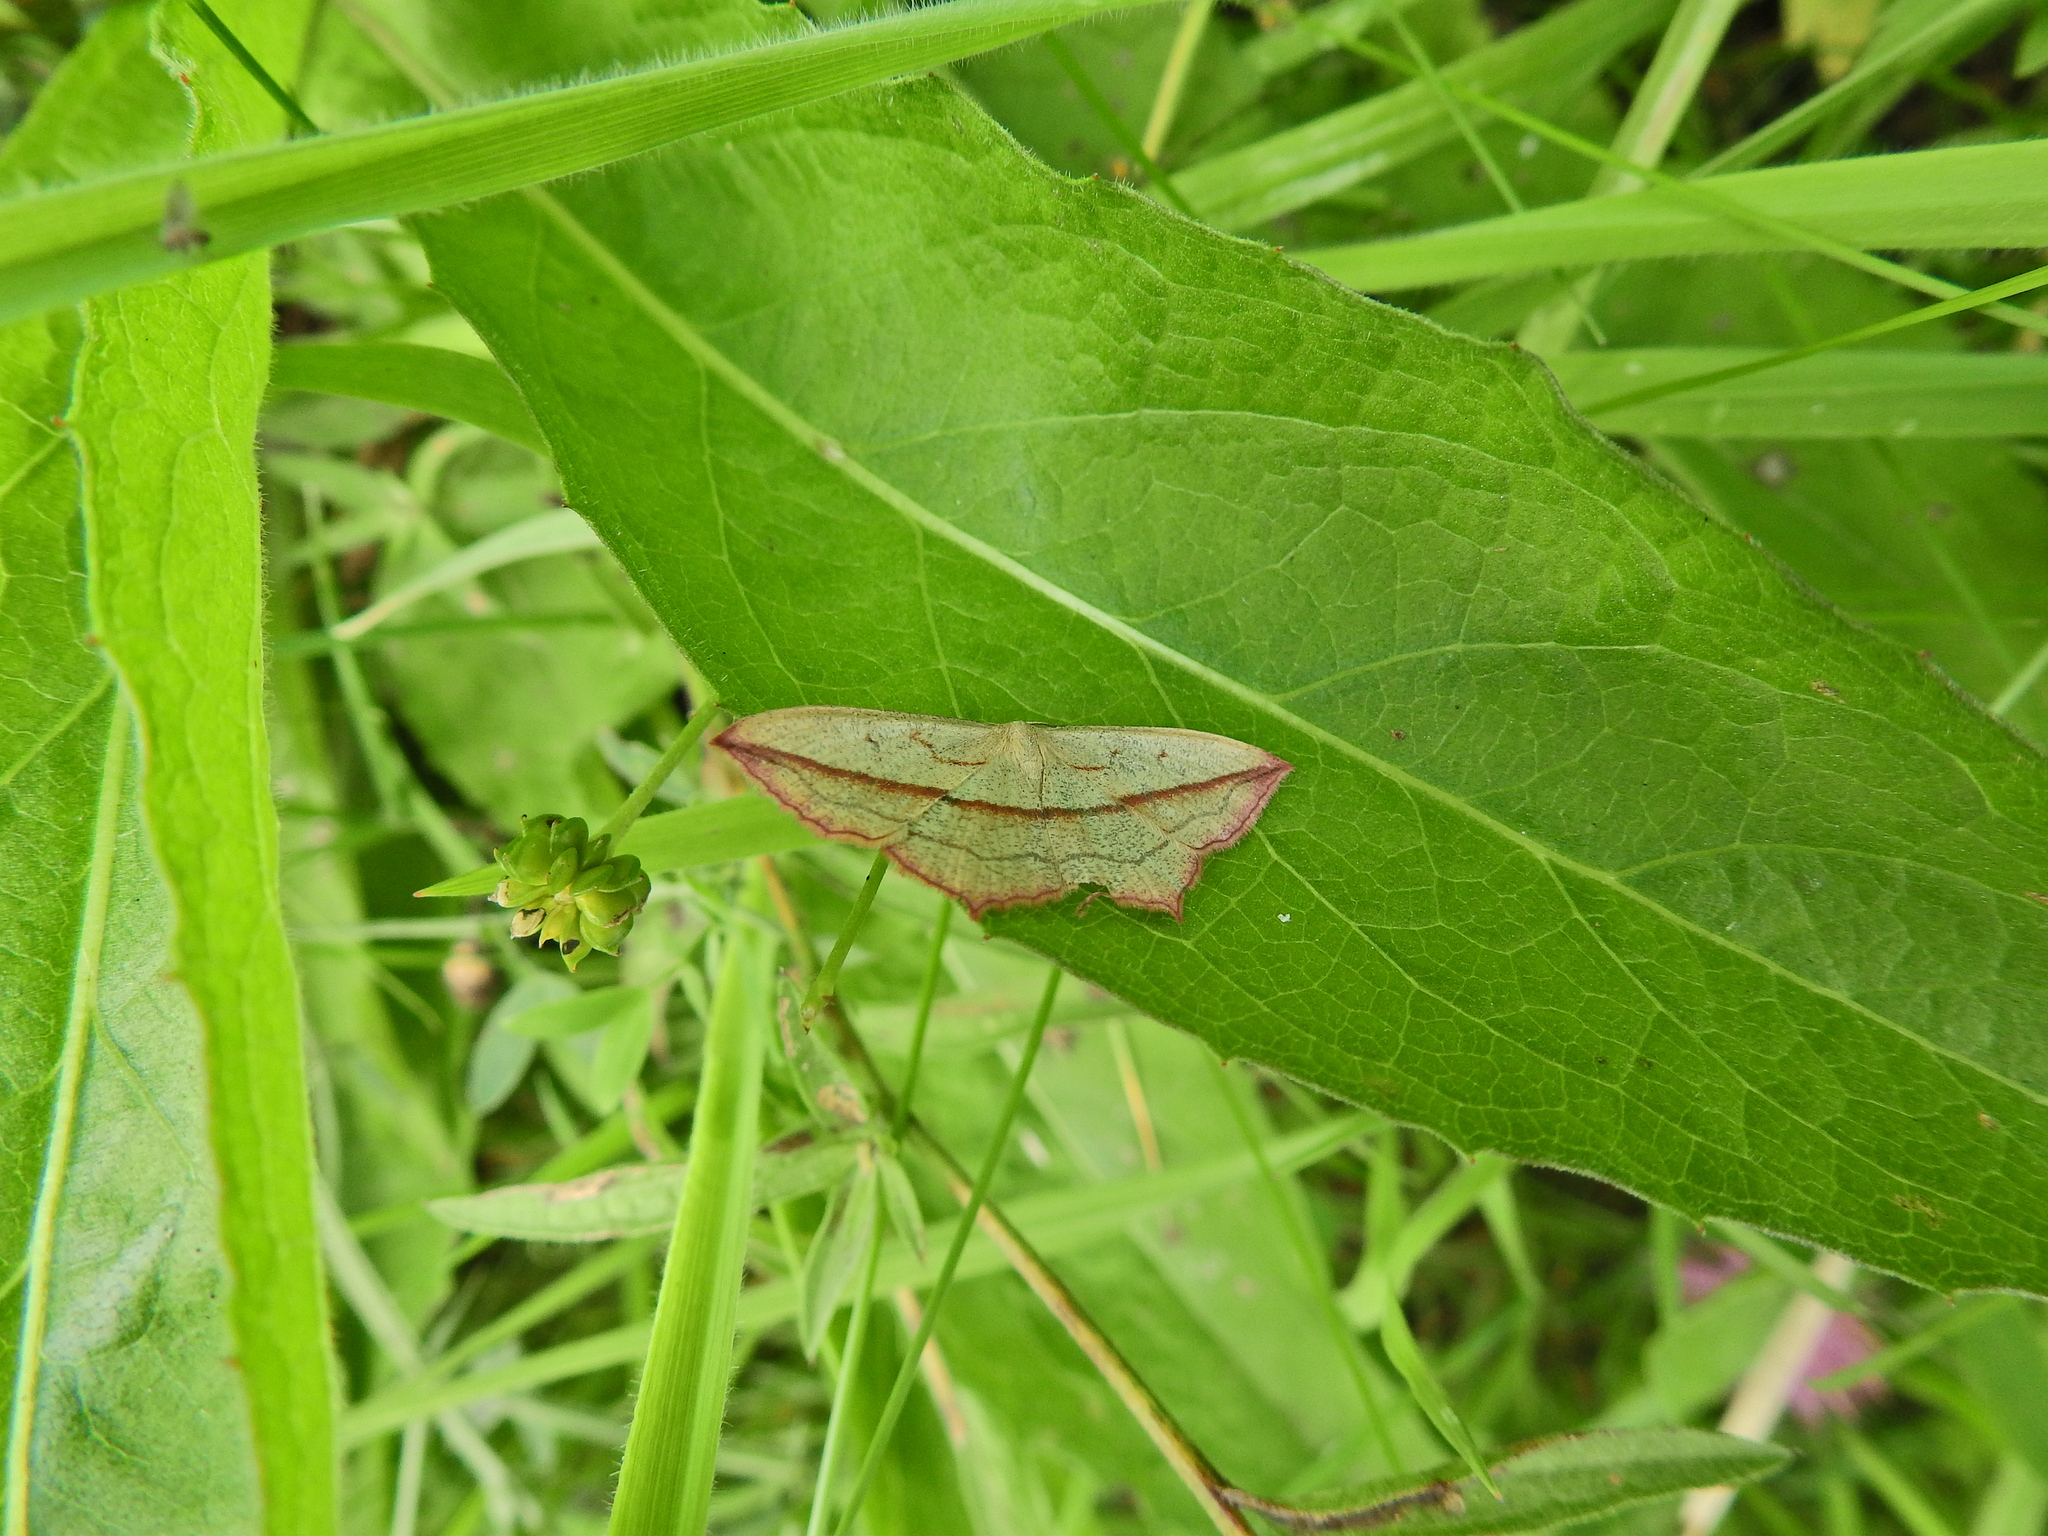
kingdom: Animalia
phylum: Arthropoda
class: Insecta
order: Lepidoptera
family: Geometridae
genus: Timandra
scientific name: Timandra comae
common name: Blood-vein
